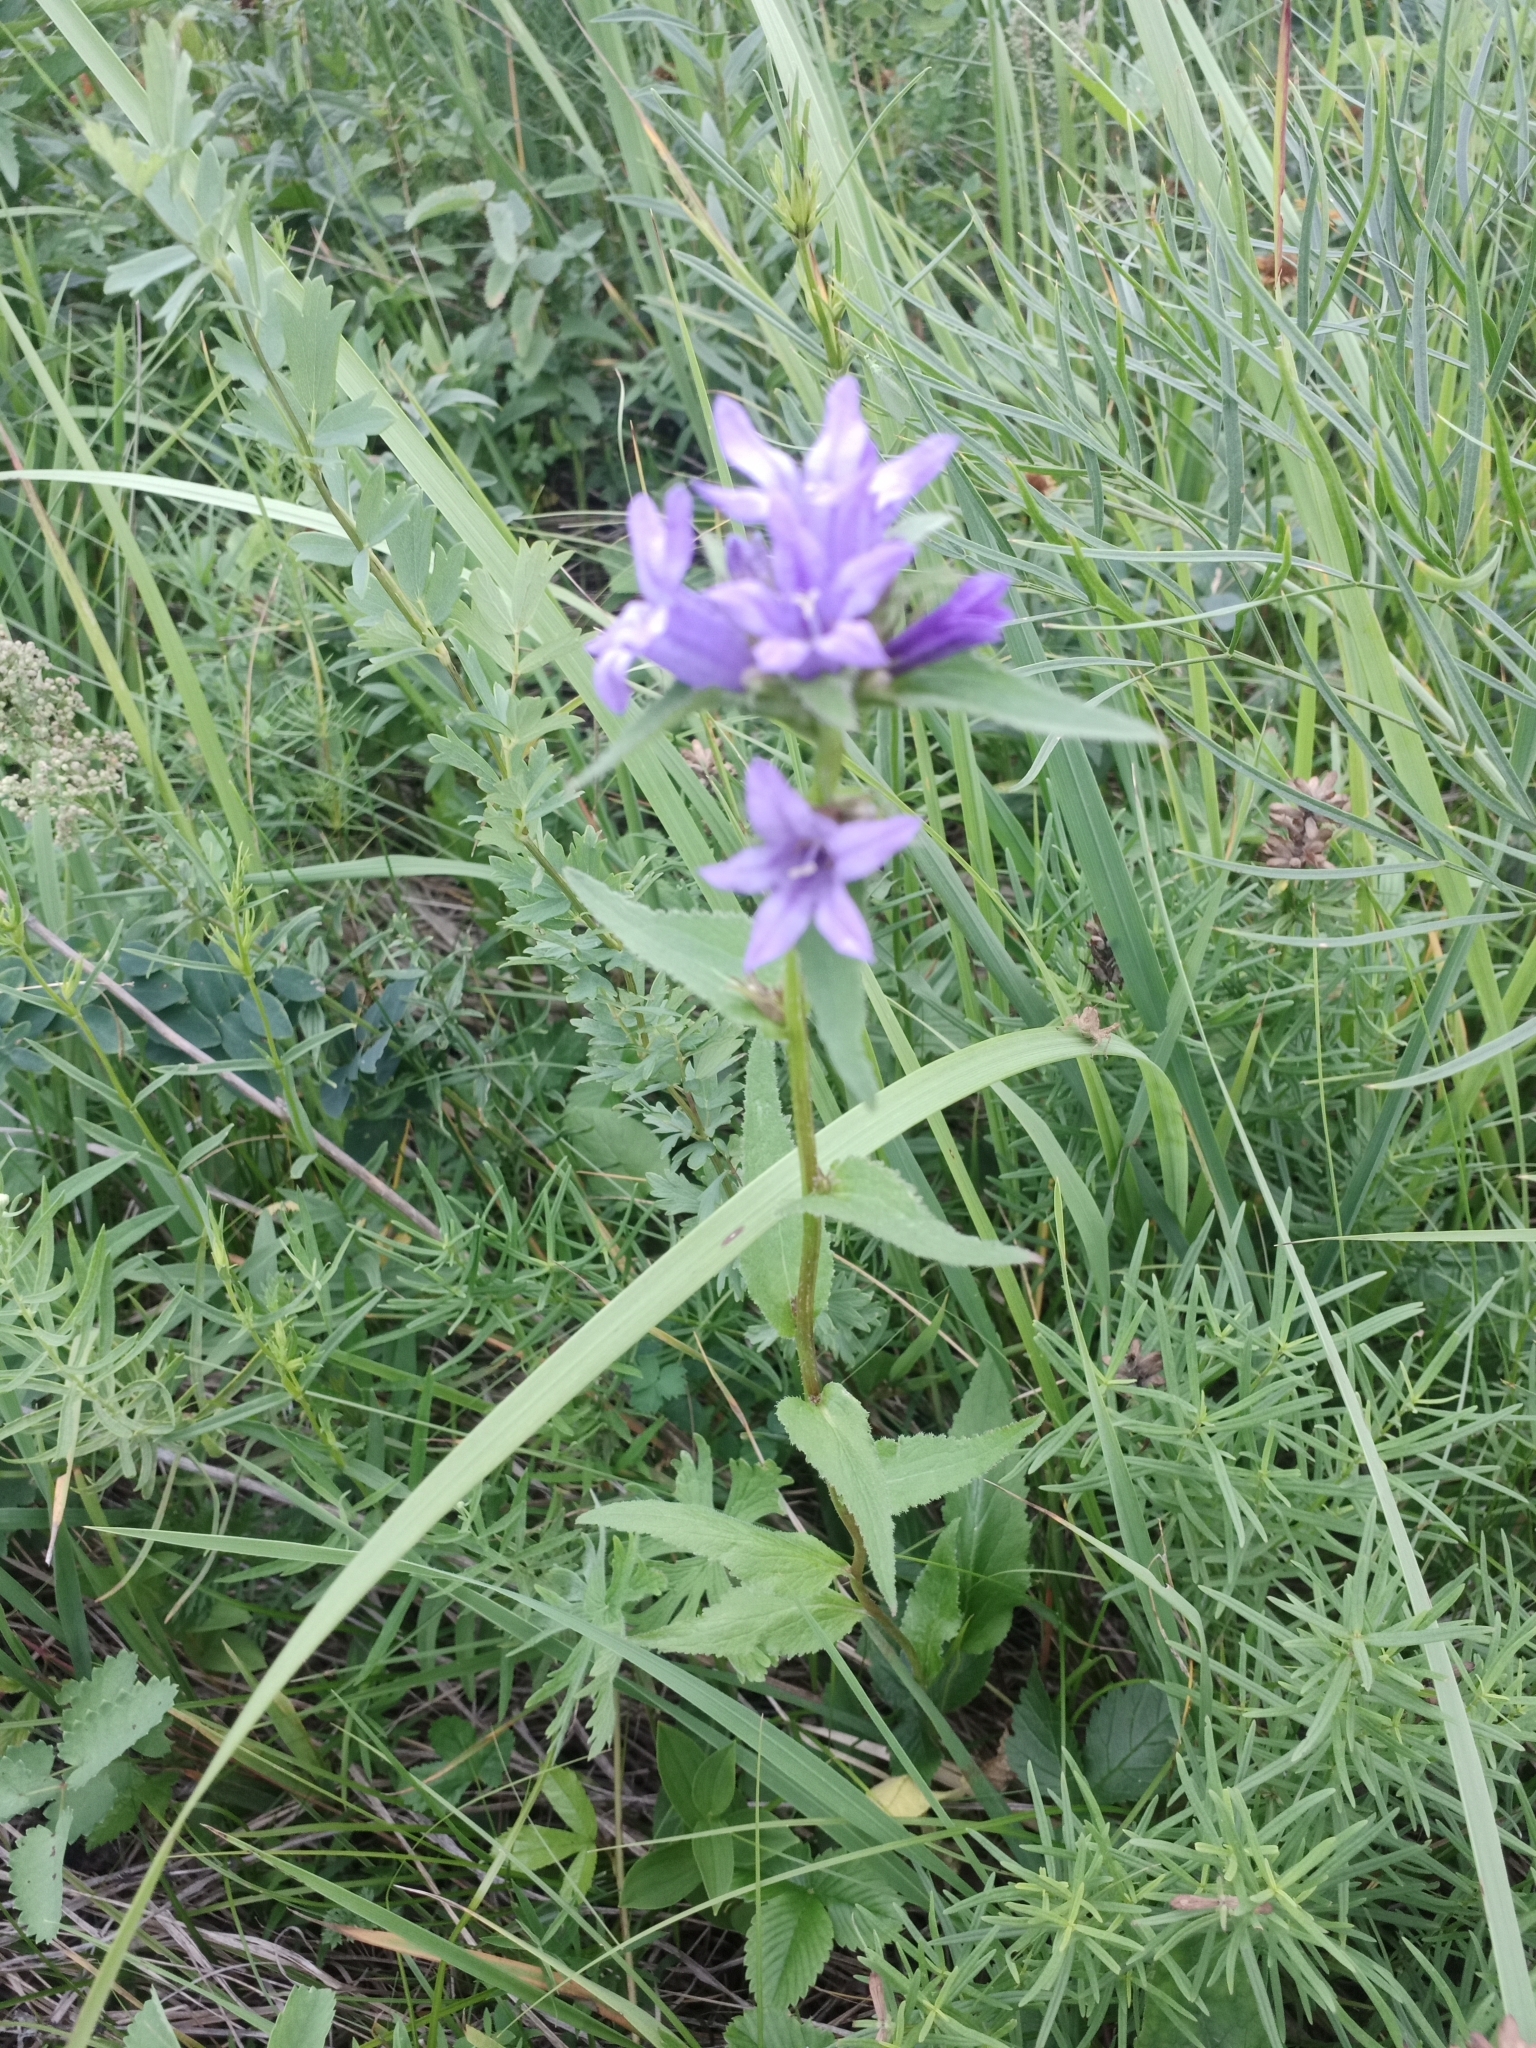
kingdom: Plantae
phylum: Tracheophyta
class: Magnoliopsida
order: Asterales
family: Campanulaceae
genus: Campanula
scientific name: Campanula glomerata
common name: Clustered bellflower
